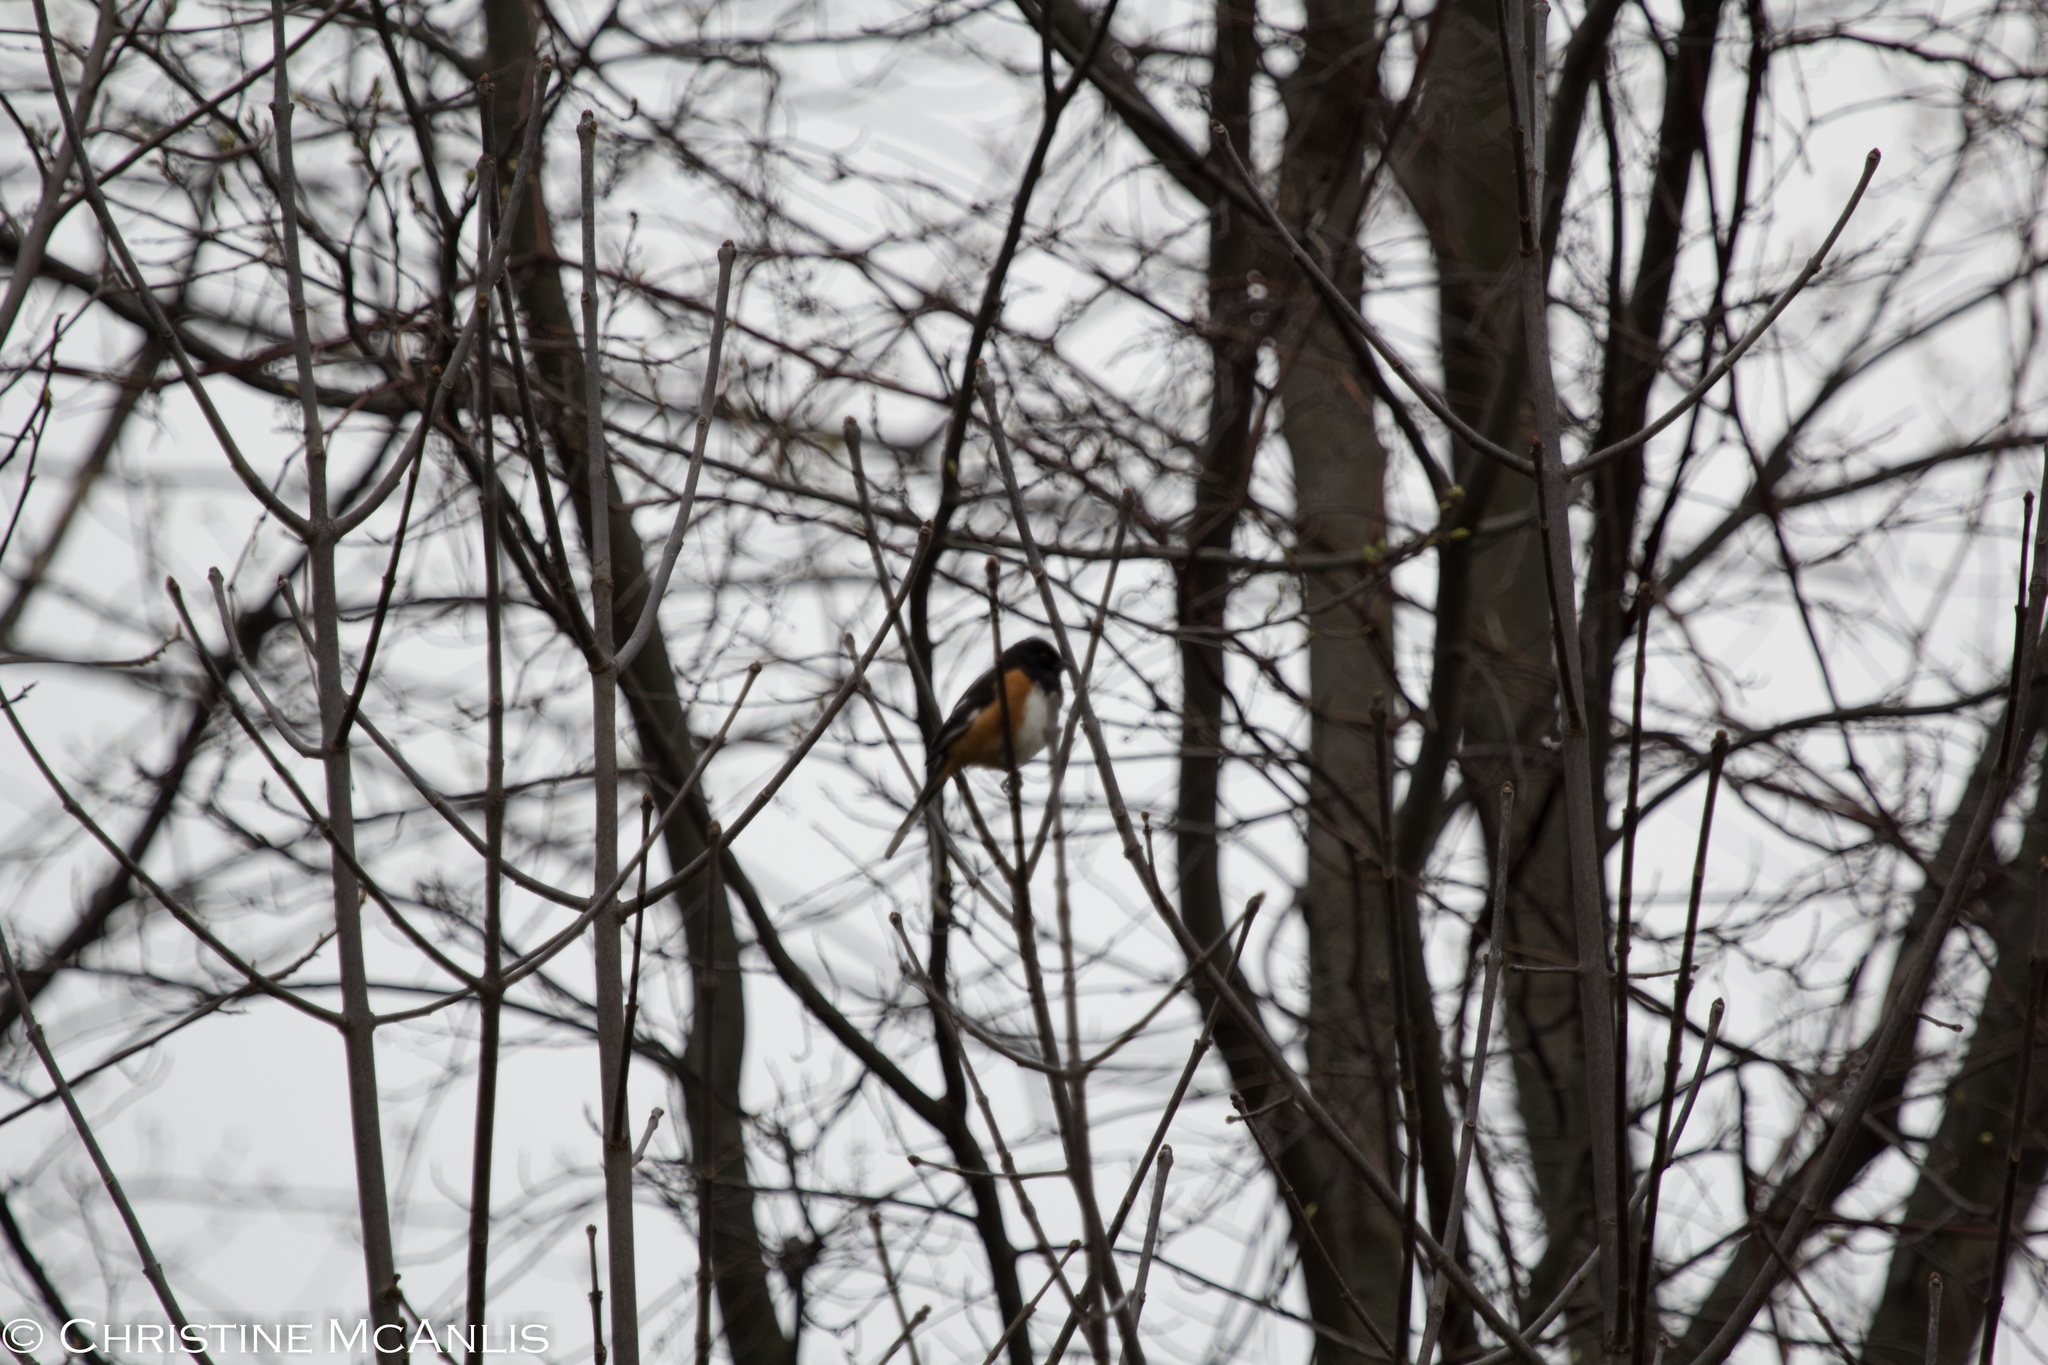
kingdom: Animalia
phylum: Chordata
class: Aves
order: Passeriformes
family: Passerellidae
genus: Pipilo
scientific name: Pipilo erythrophthalmus
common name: Eastern towhee
